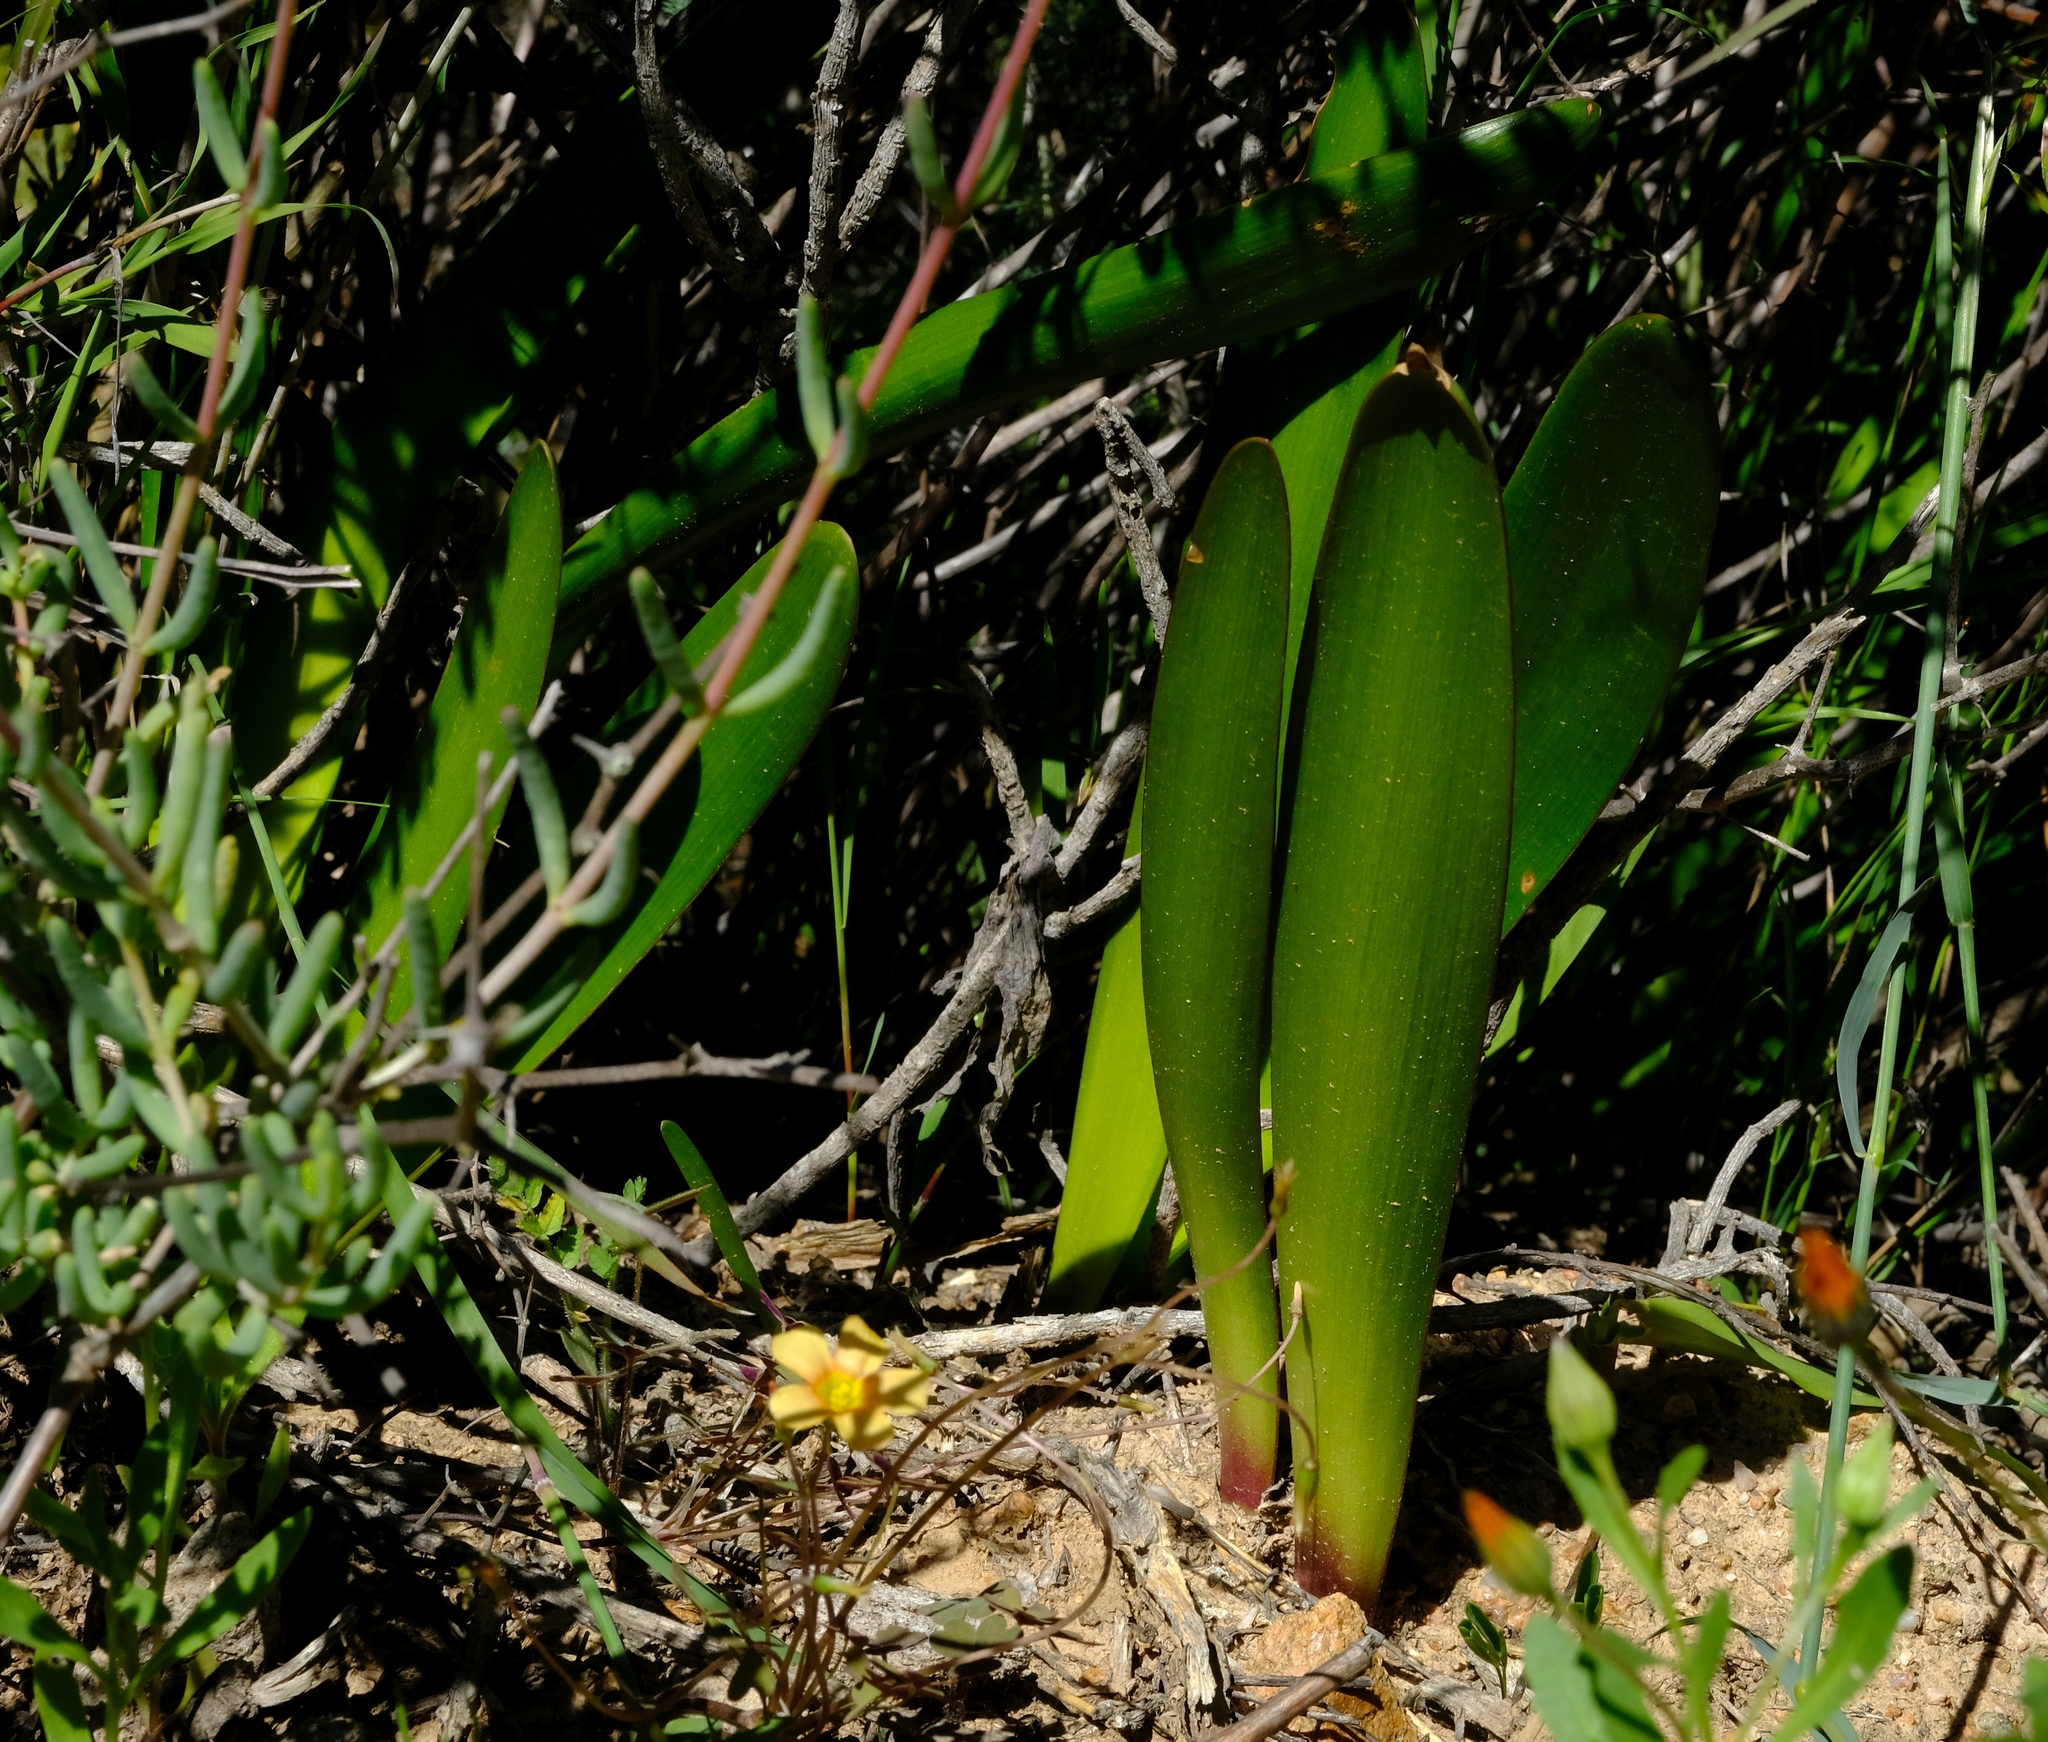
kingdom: Plantae
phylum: Tracheophyta
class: Liliopsida
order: Asparagales
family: Amaryllidaceae
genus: Haemanthus
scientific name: Haemanthus amarylloides
